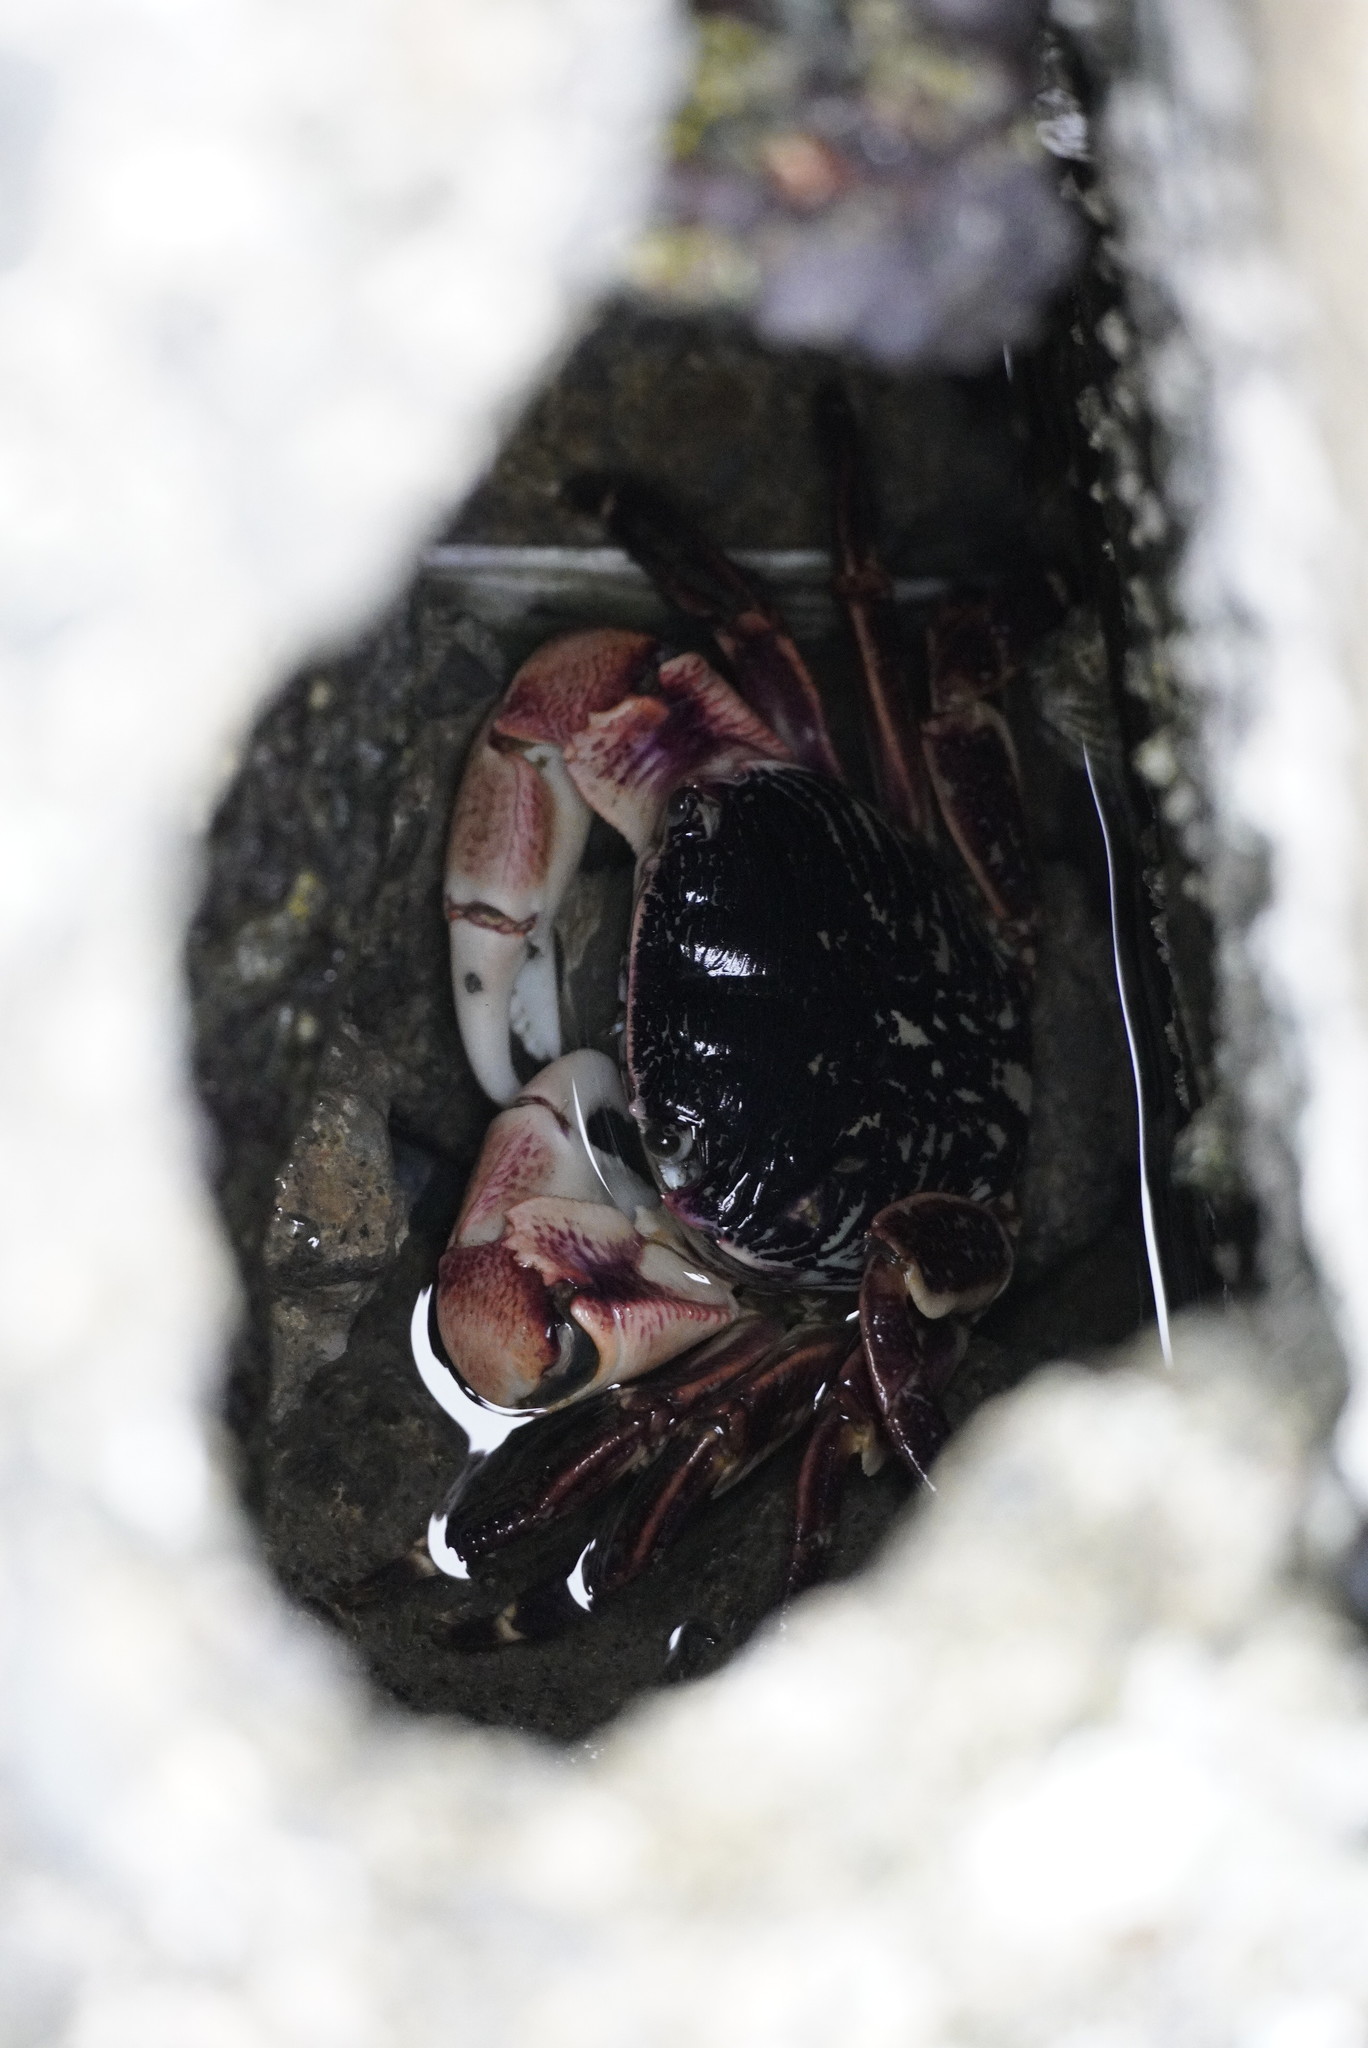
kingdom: Animalia
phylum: Arthropoda
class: Malacostraca
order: Decapoda
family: Grapsidae
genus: Pachygrapsus
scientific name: Pachygrapsus crassipes
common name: Striped shore crab
